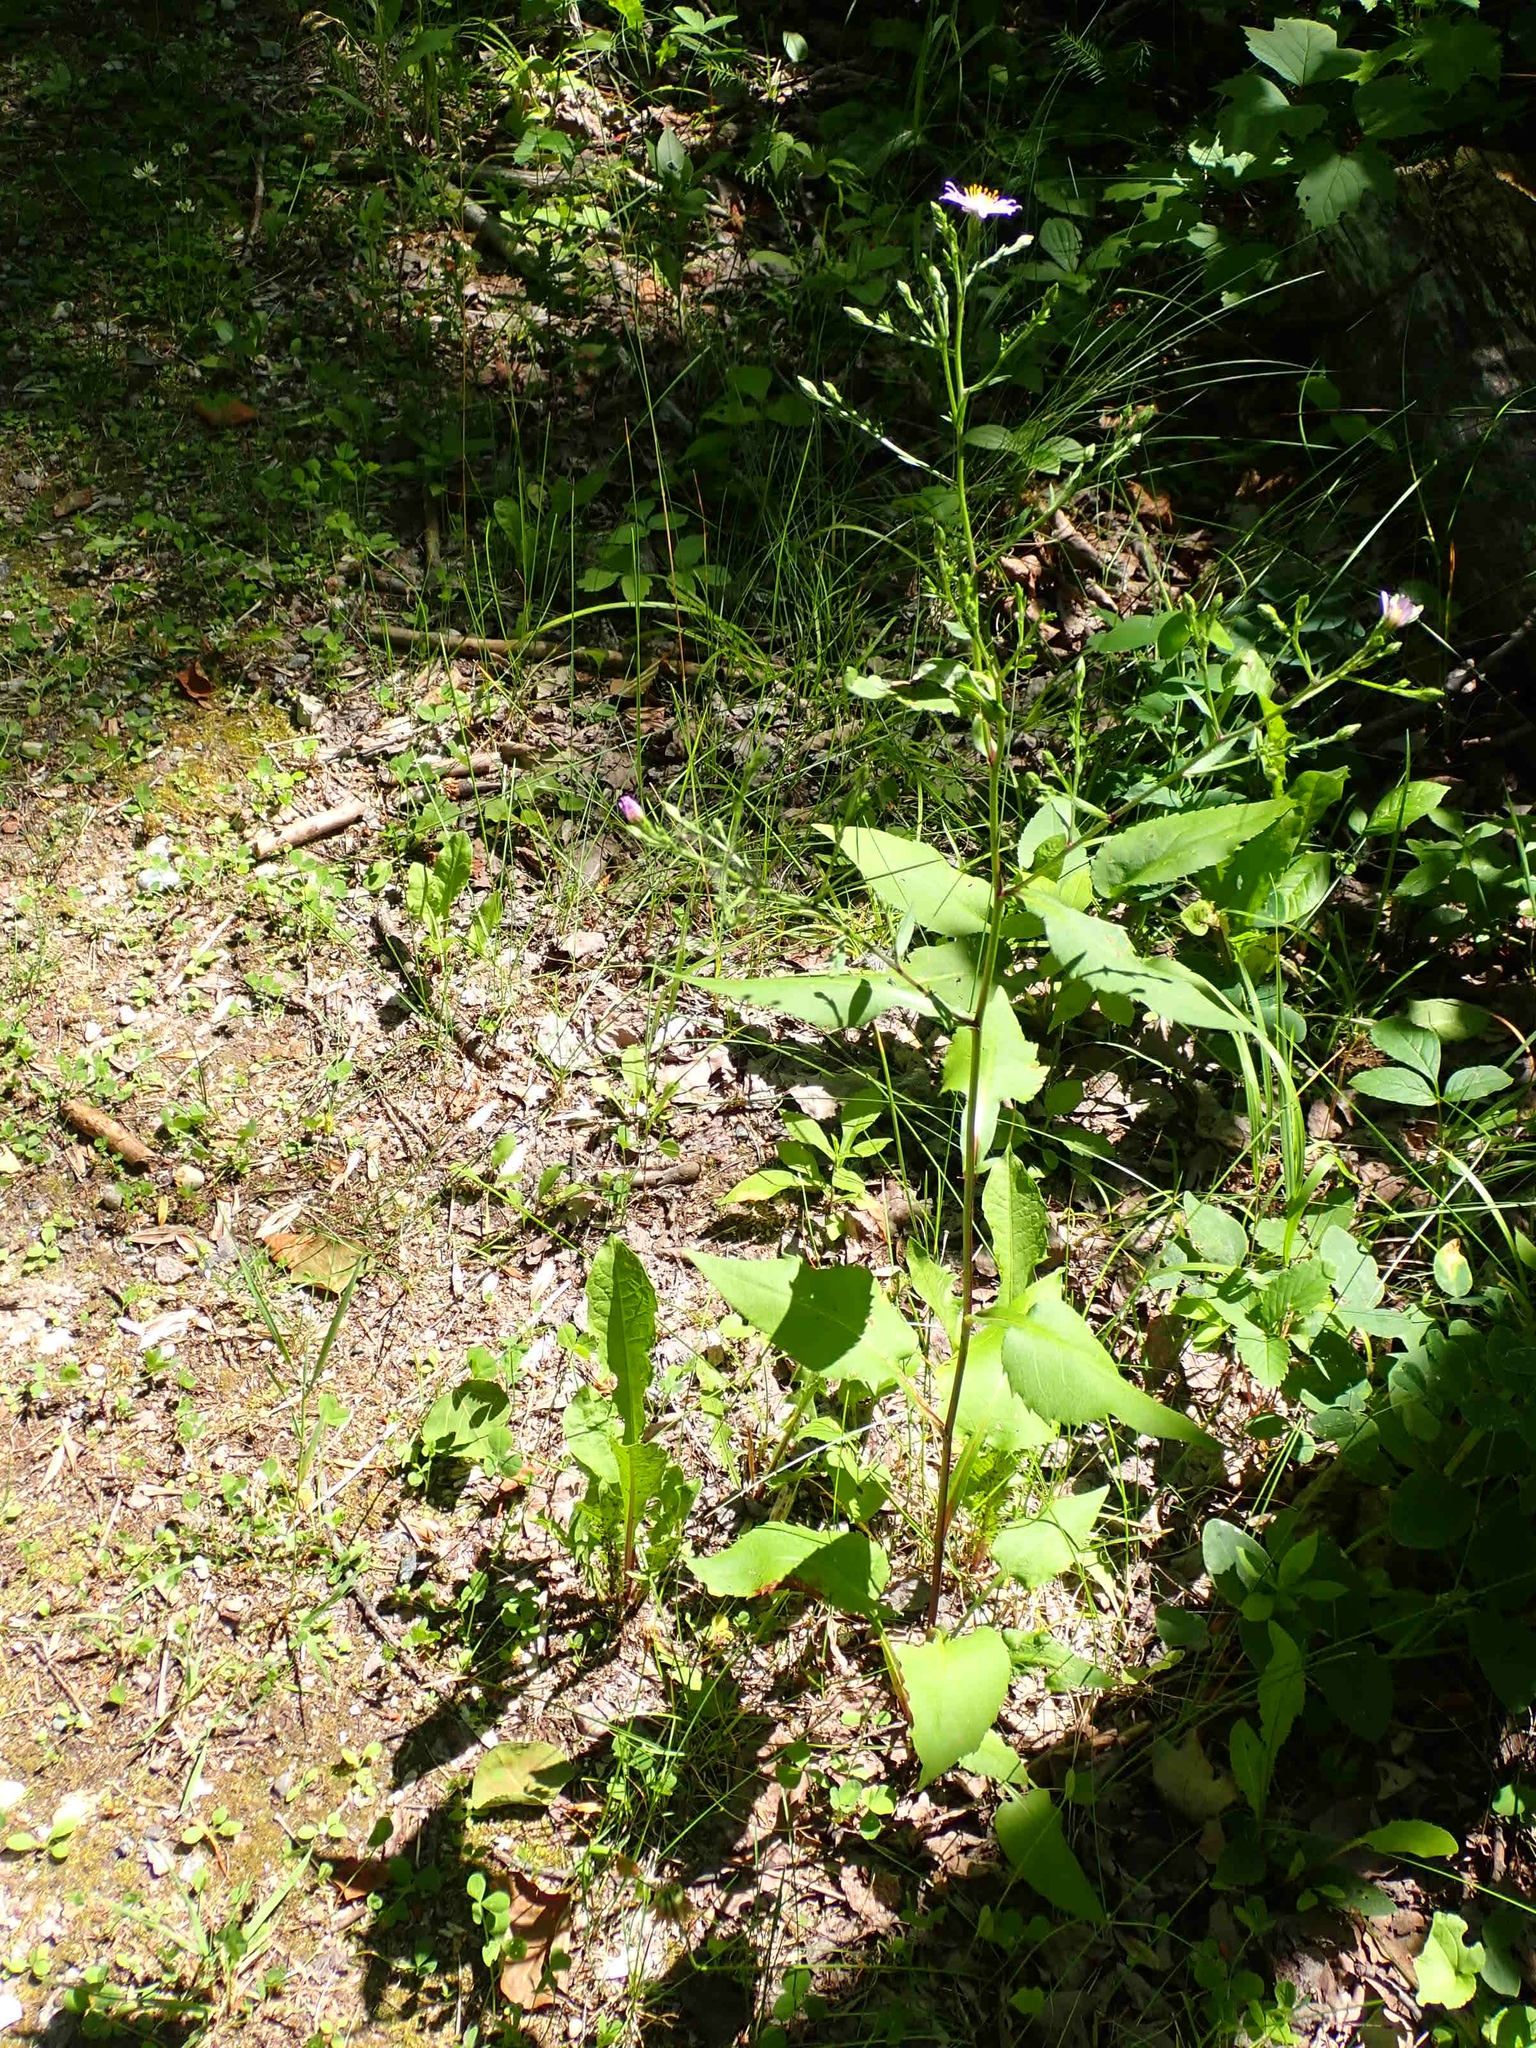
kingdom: Plantae
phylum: Tracheophyta
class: Magnoliopsida
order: Asterales
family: Asteraceae
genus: Symphyotrichum
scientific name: Symphyotrichum ciliolatum
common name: Fringed blue aster
